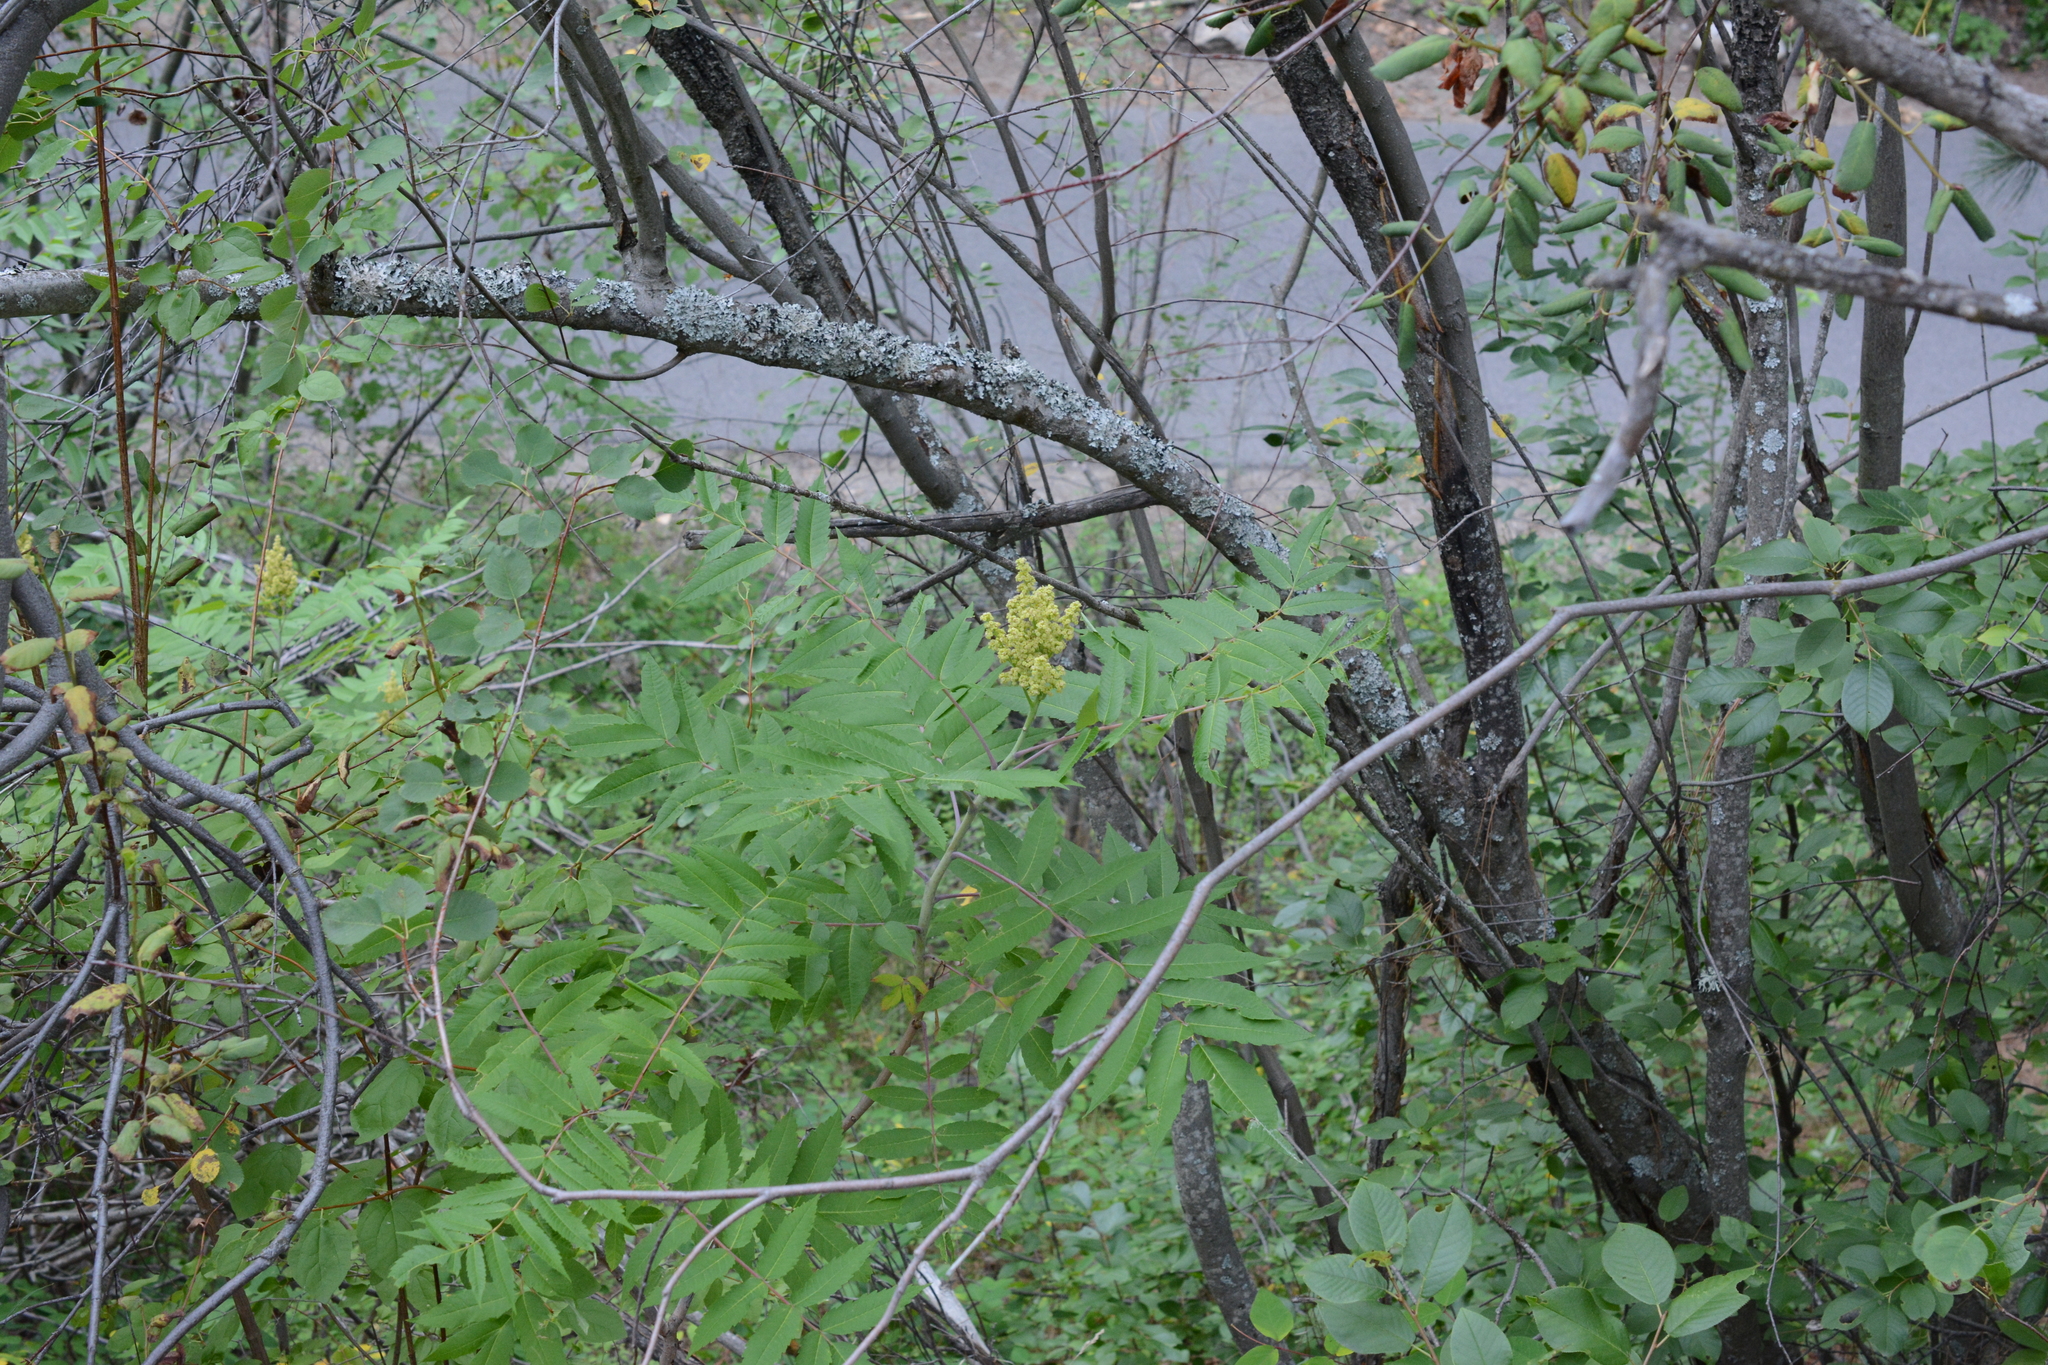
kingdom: Plantae
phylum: Tracheophyta
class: Magnoliopsida
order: Sapindales
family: Anacardiaceae
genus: Rhus
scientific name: Rhus glabra
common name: Scarlet sumac
